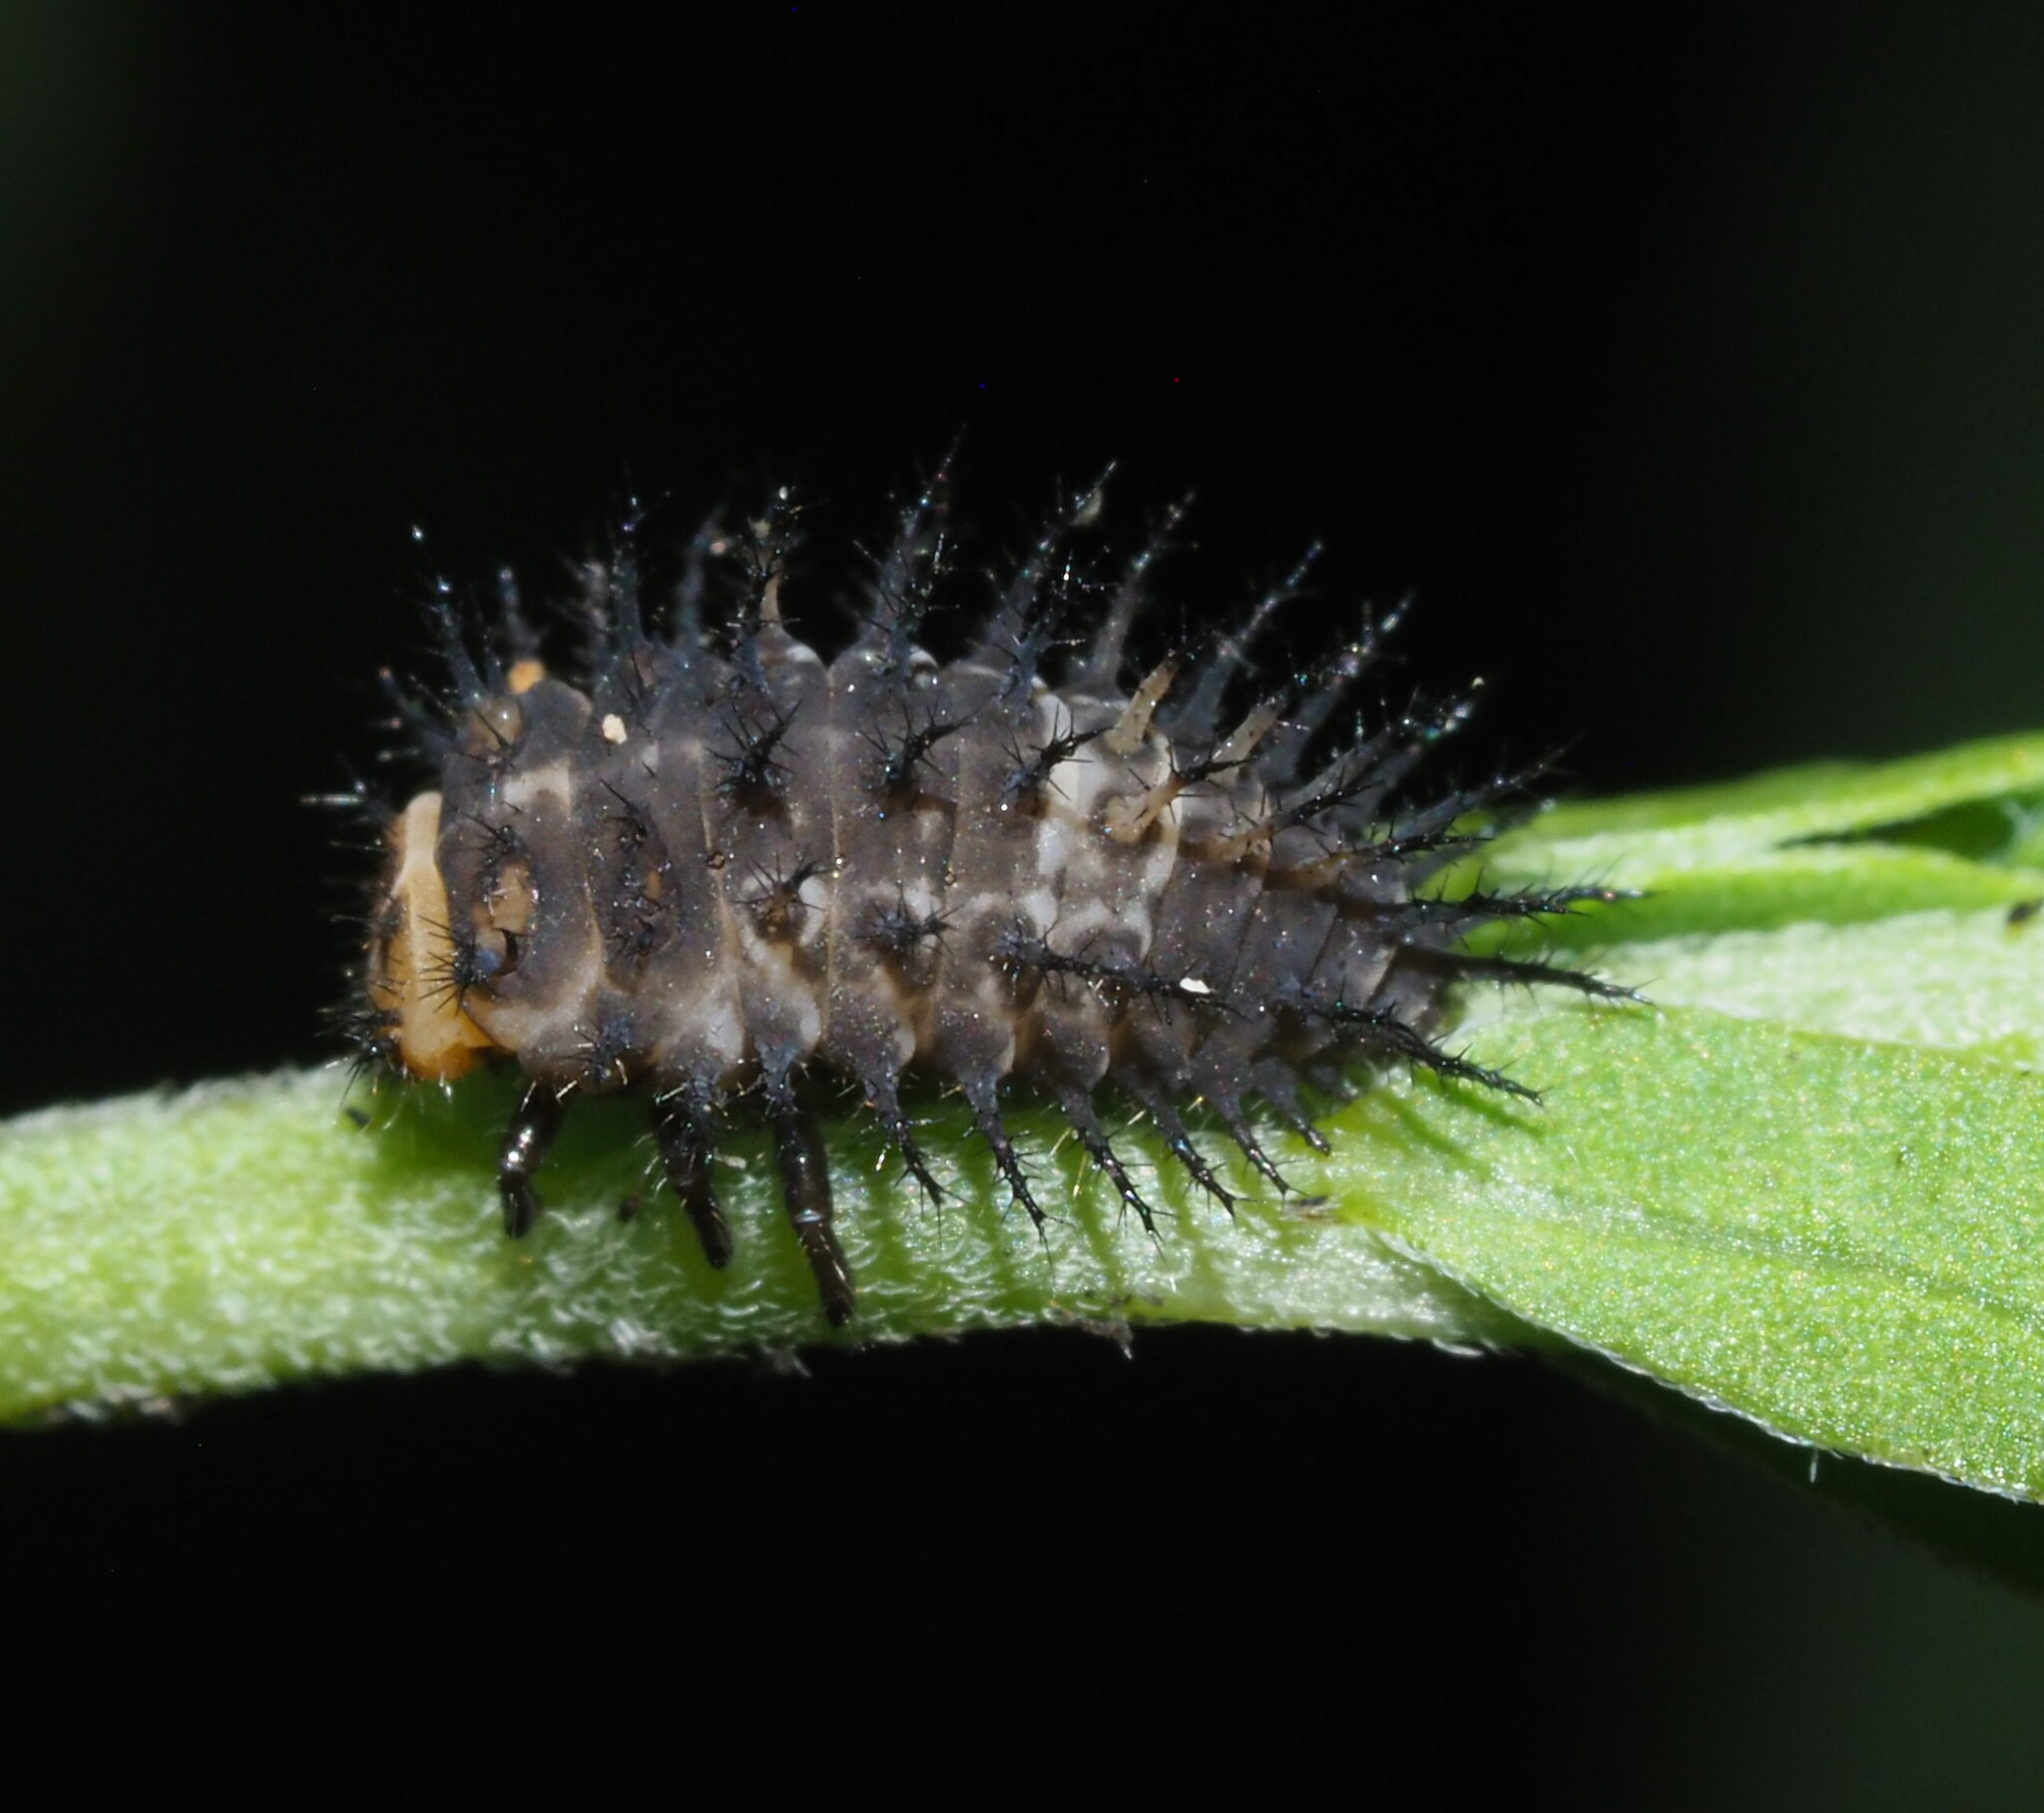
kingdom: Animalia
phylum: Arthropoda
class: Insecta
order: Coleoptera
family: Coccinellidae
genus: Curinus
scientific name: Curinus coeruleus
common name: Ladybird beetle
